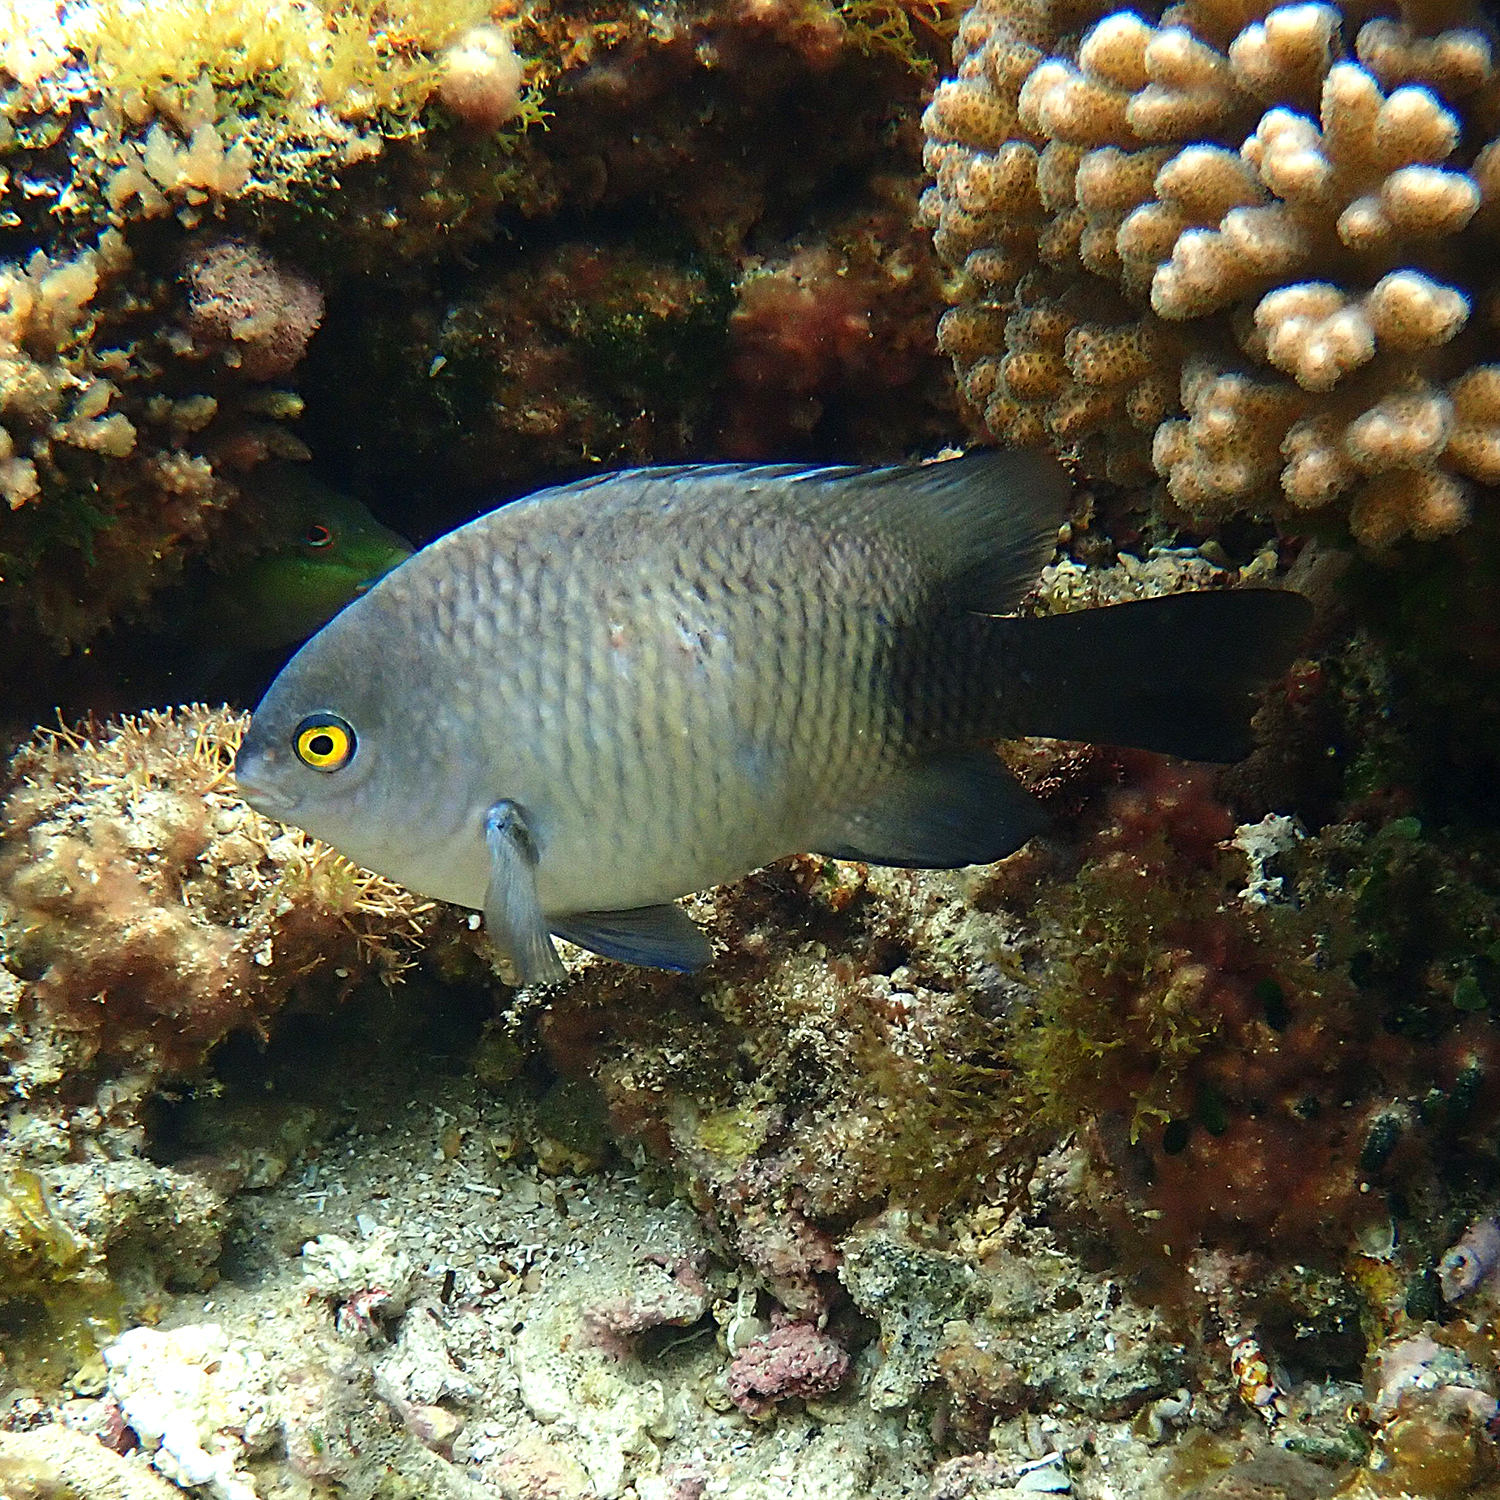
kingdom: Animalia
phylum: Chordata
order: Perciformes
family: Pomacentridae
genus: Stegastes
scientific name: Stegastes fasciolatus
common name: Pacific gregory
